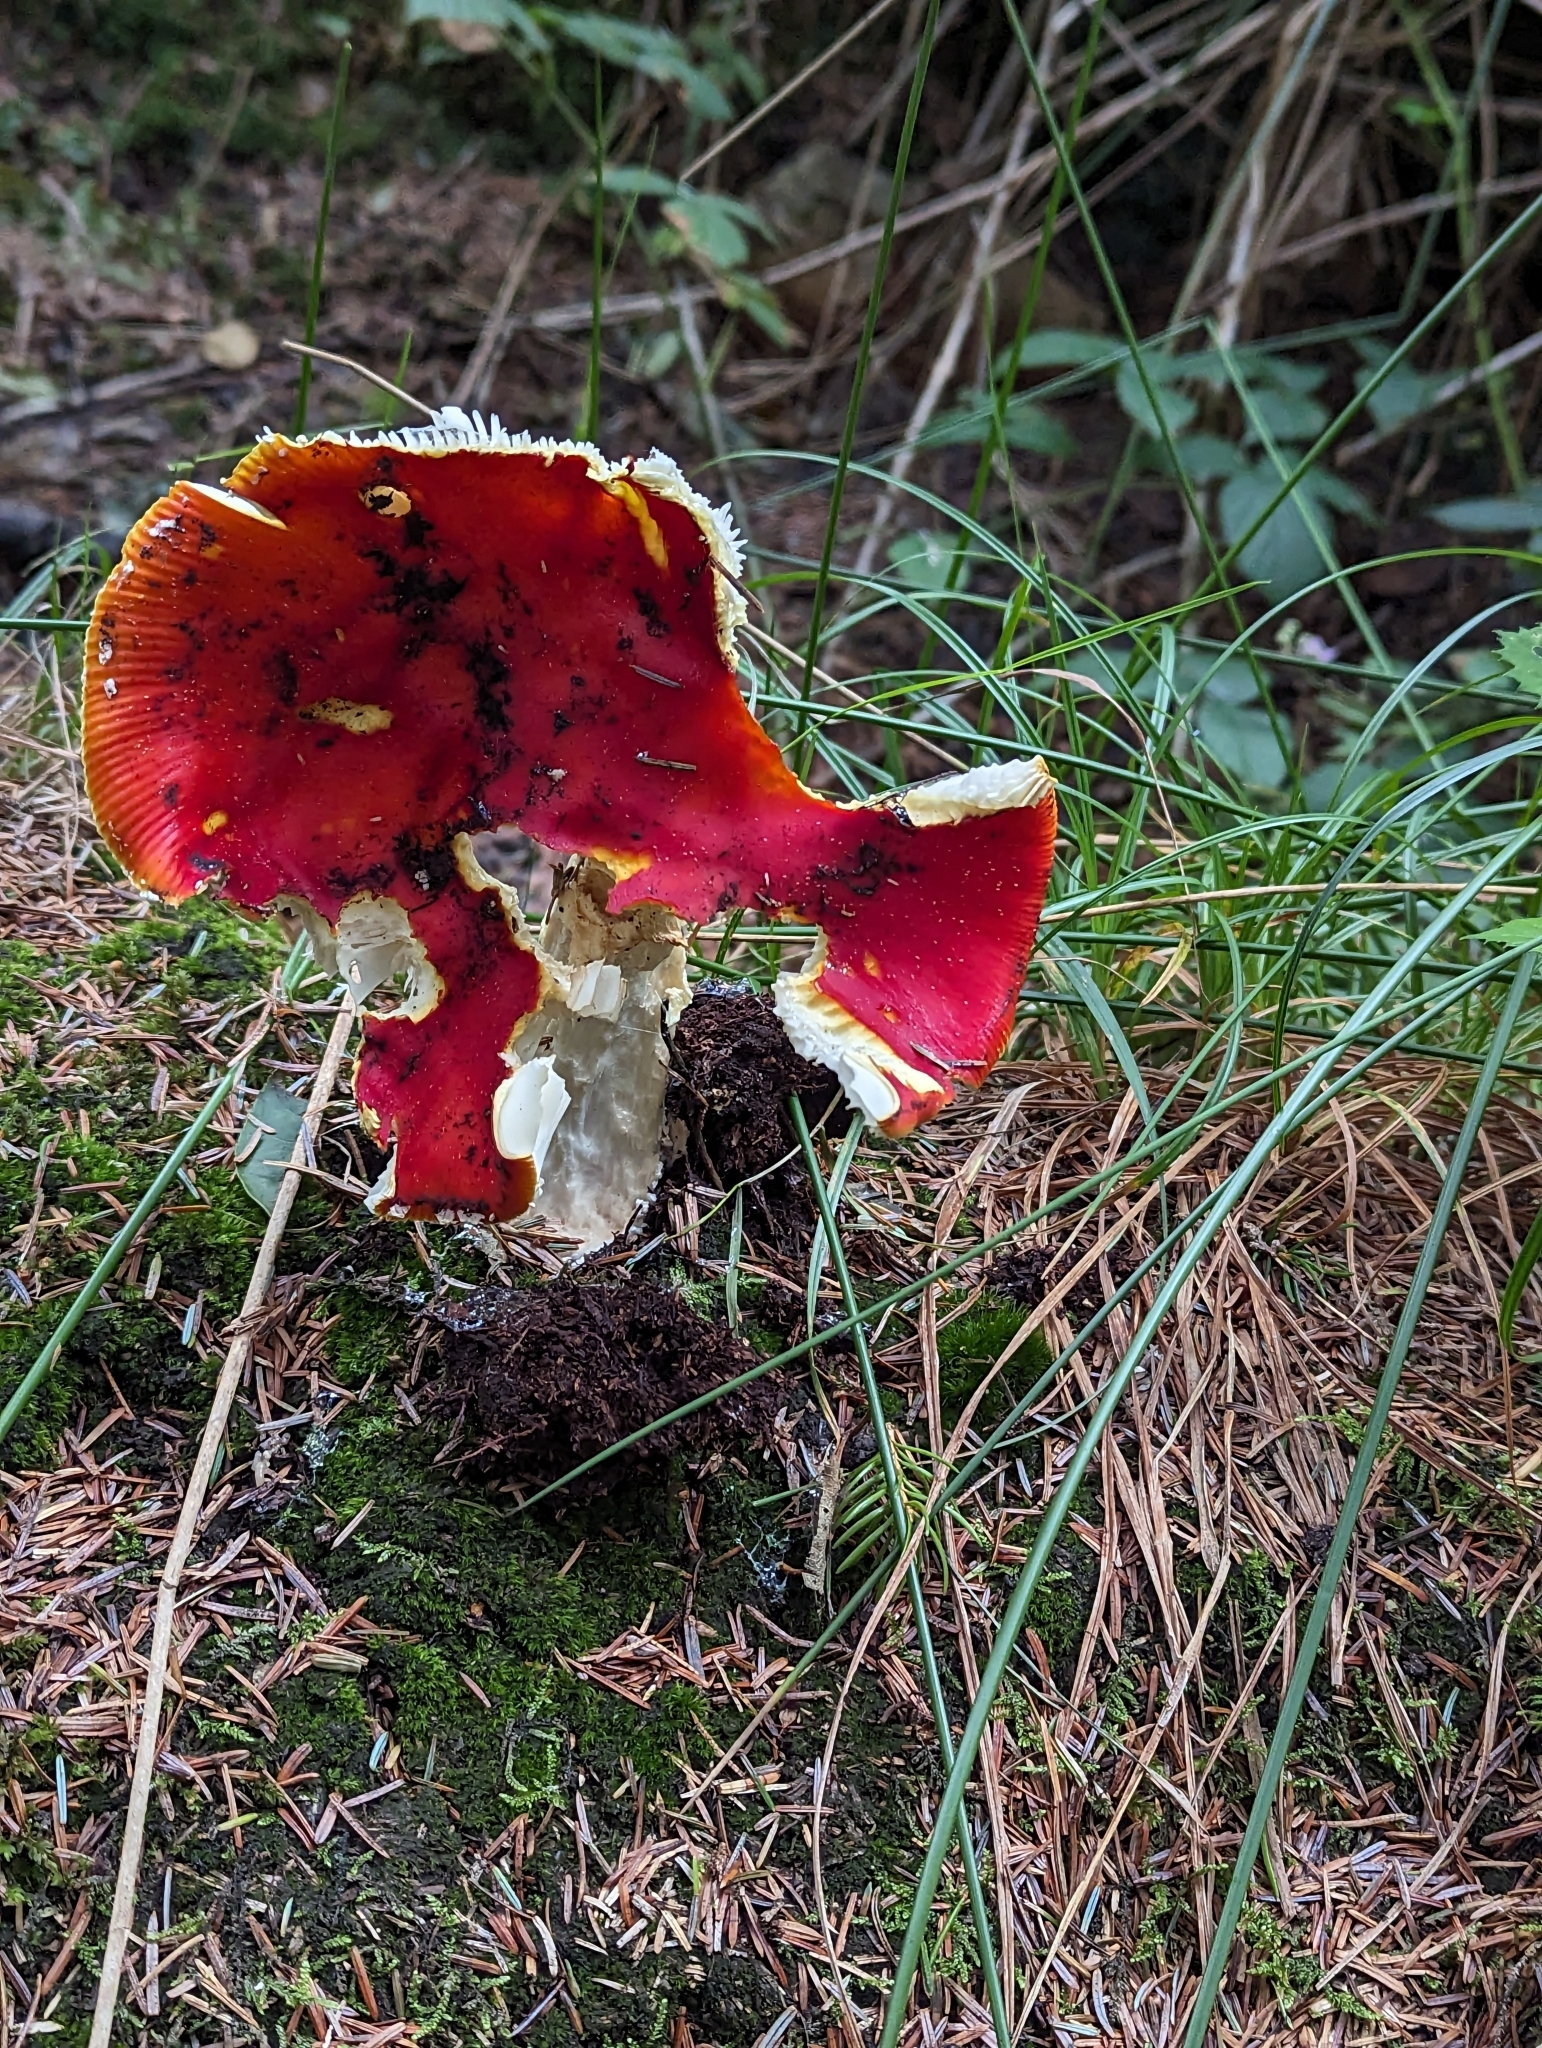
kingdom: Fungi
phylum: Basidiomycota
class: Agaricomycetes
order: Agaricales
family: Amanitaceae
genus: Amanita
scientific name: Amanita muscaria
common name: Fly agaric
